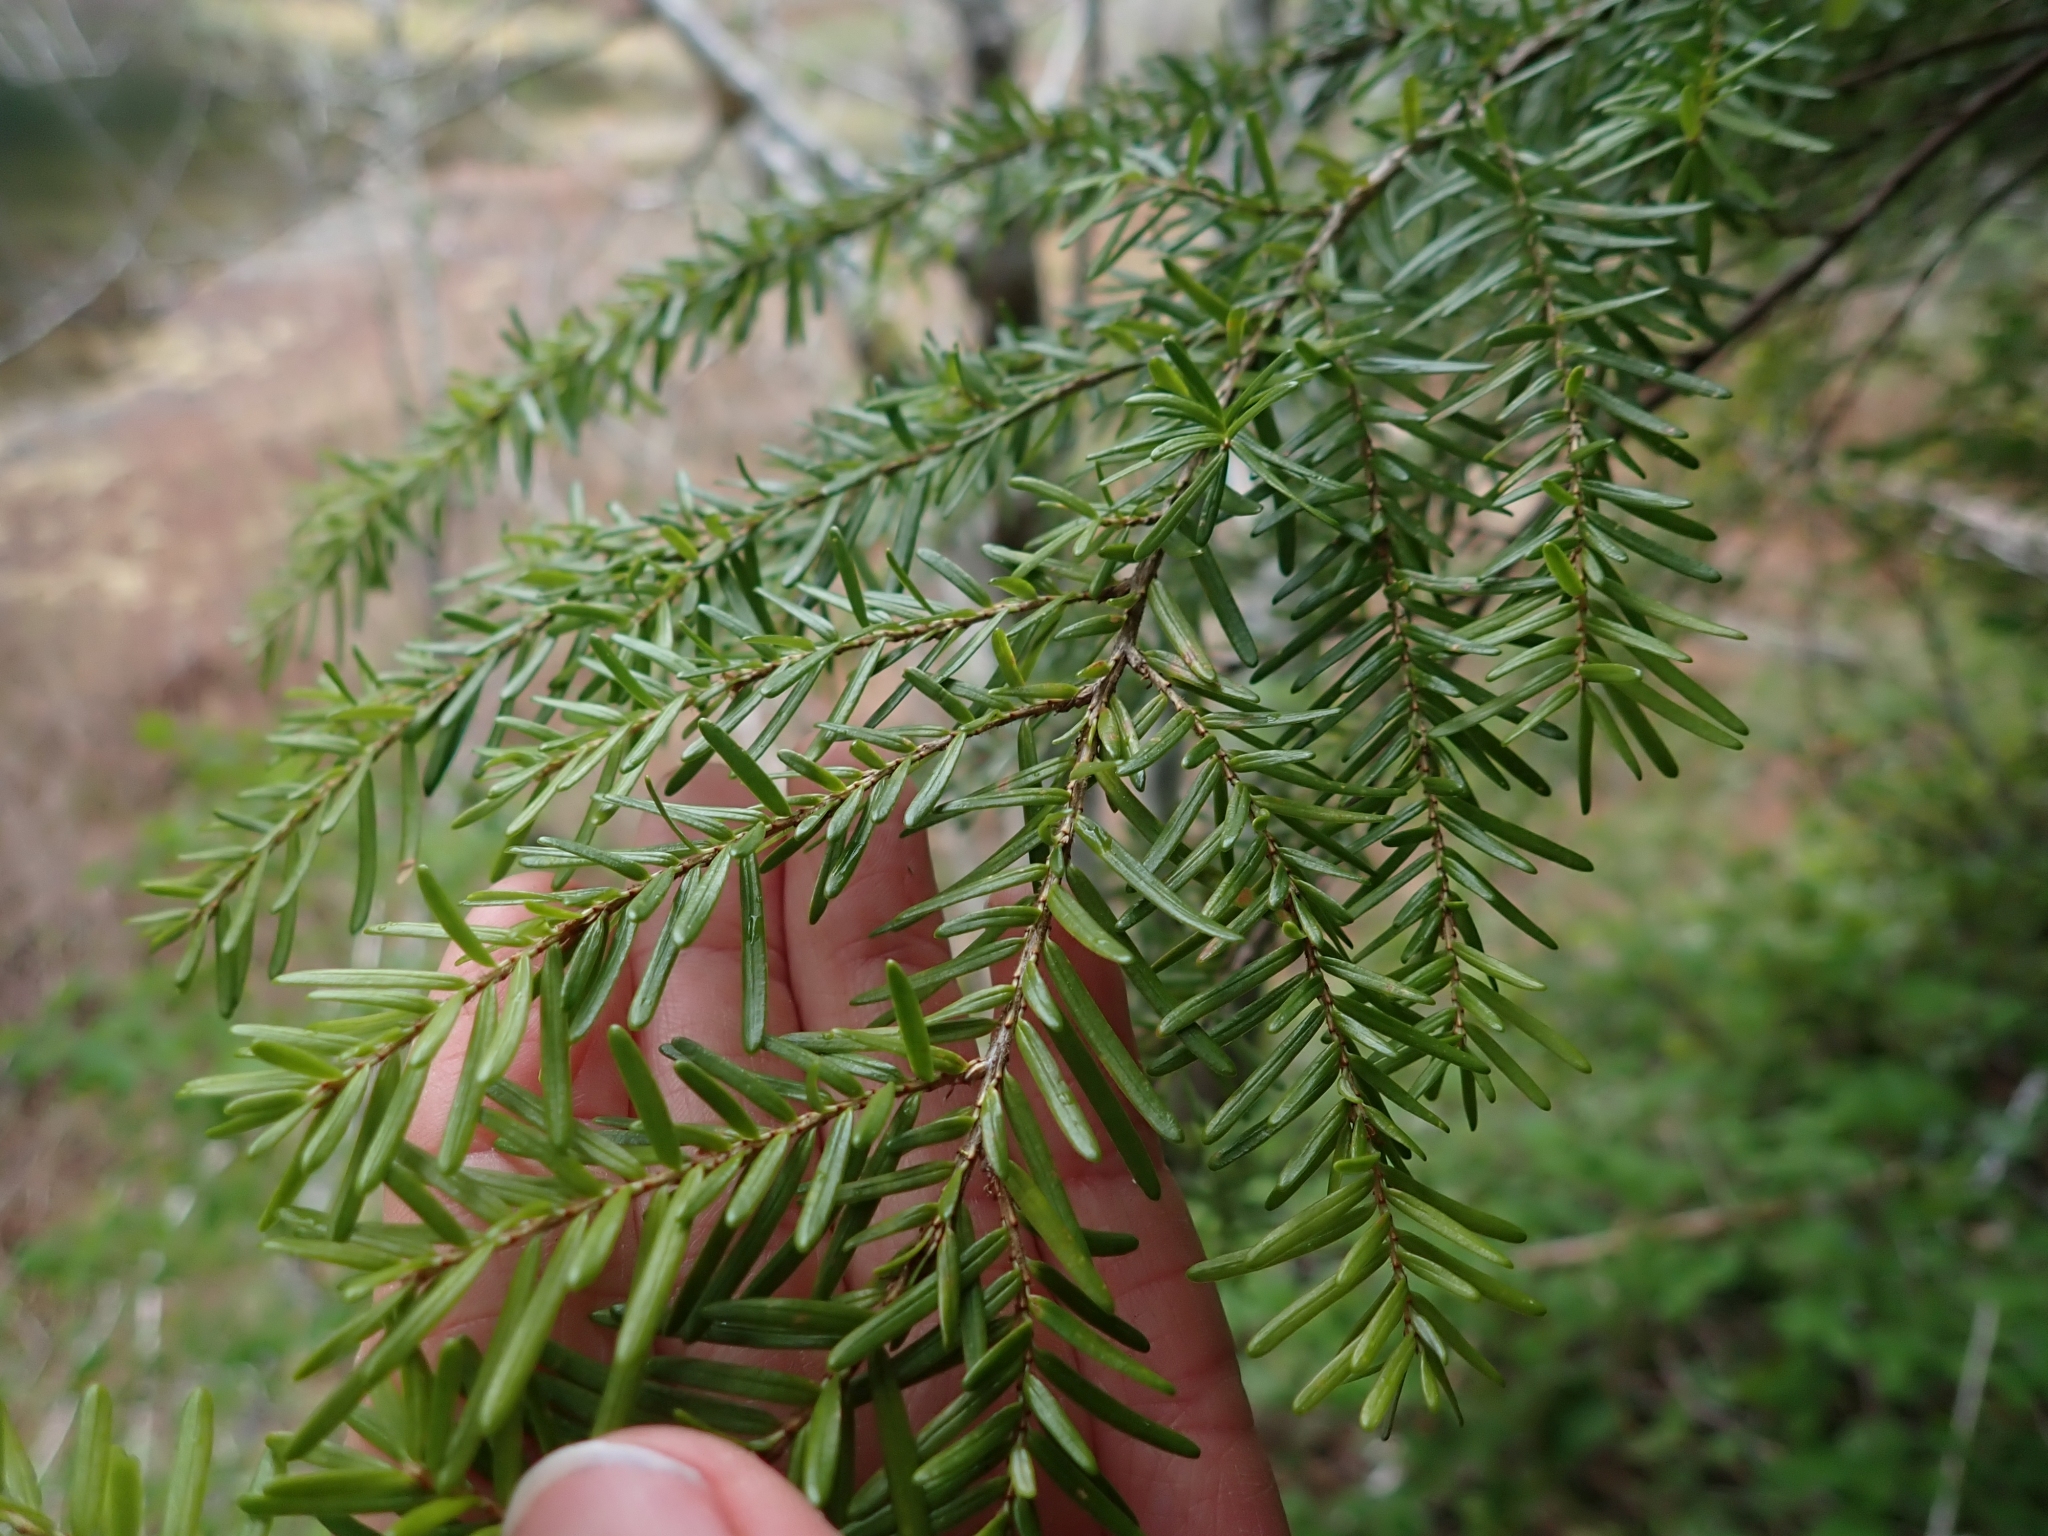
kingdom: Plantae
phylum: Tracheophyta
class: Pinopsida
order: Pinales
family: Pinaceae
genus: Tsuga
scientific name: Tsuga heterophylla
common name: Western hemlock
